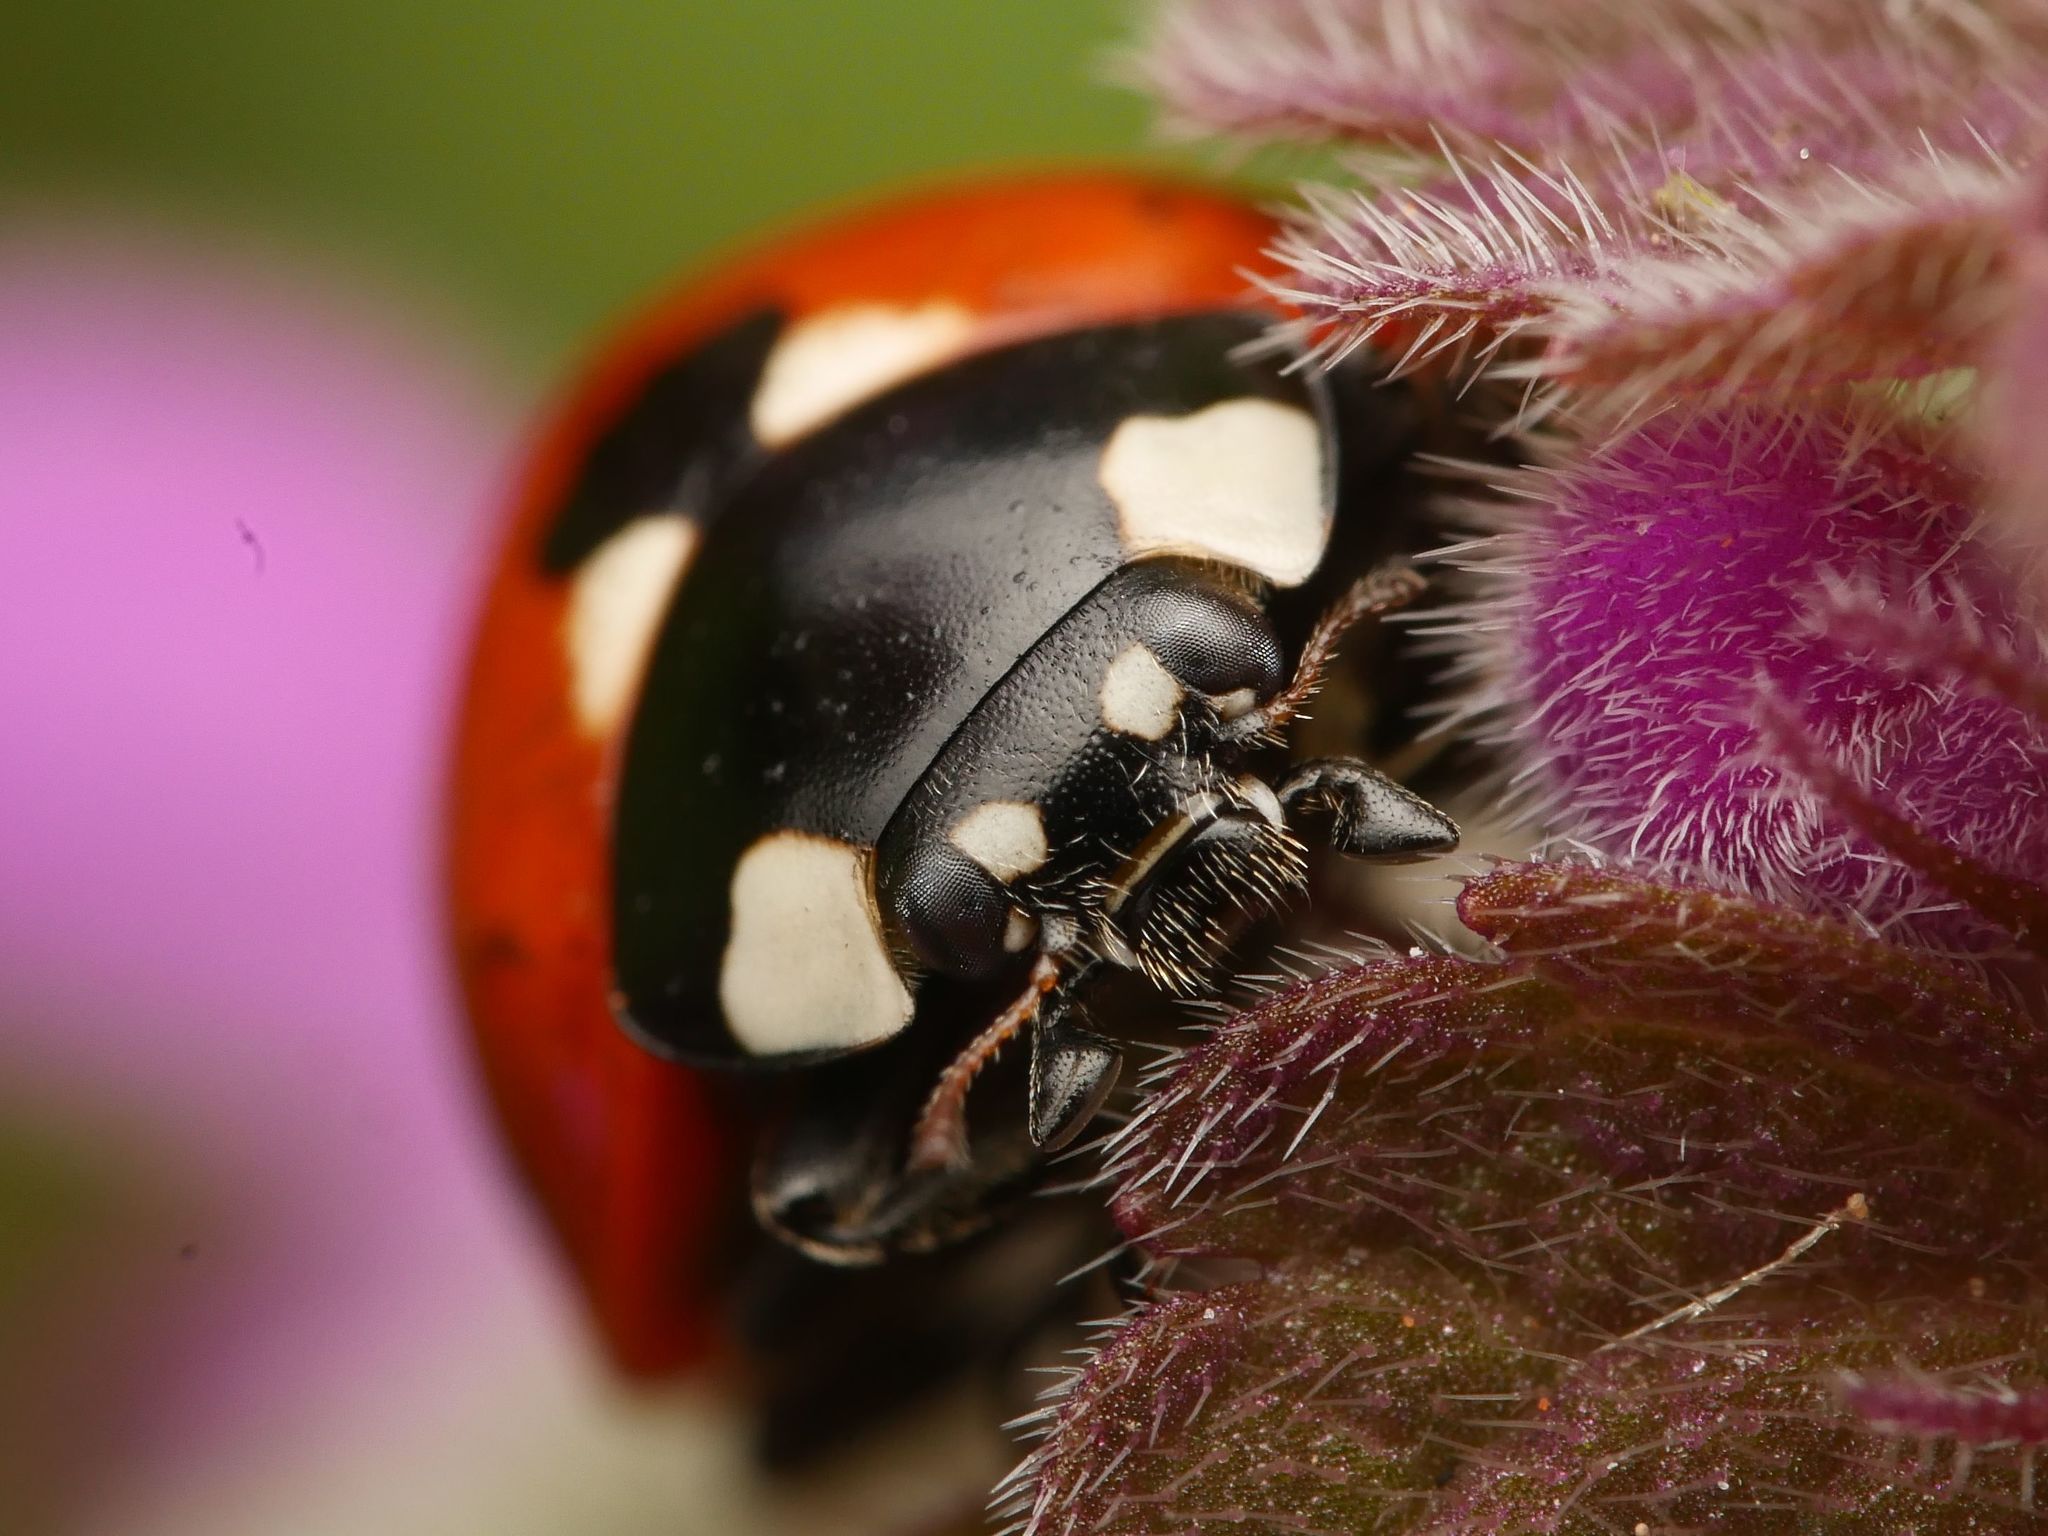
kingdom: Animalia
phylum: Arthropoda
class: Insecta
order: Coleoptera
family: Coccinellidae
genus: Coccinella
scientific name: Coccinella septempunctata
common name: Sevenspotted lady beetle
